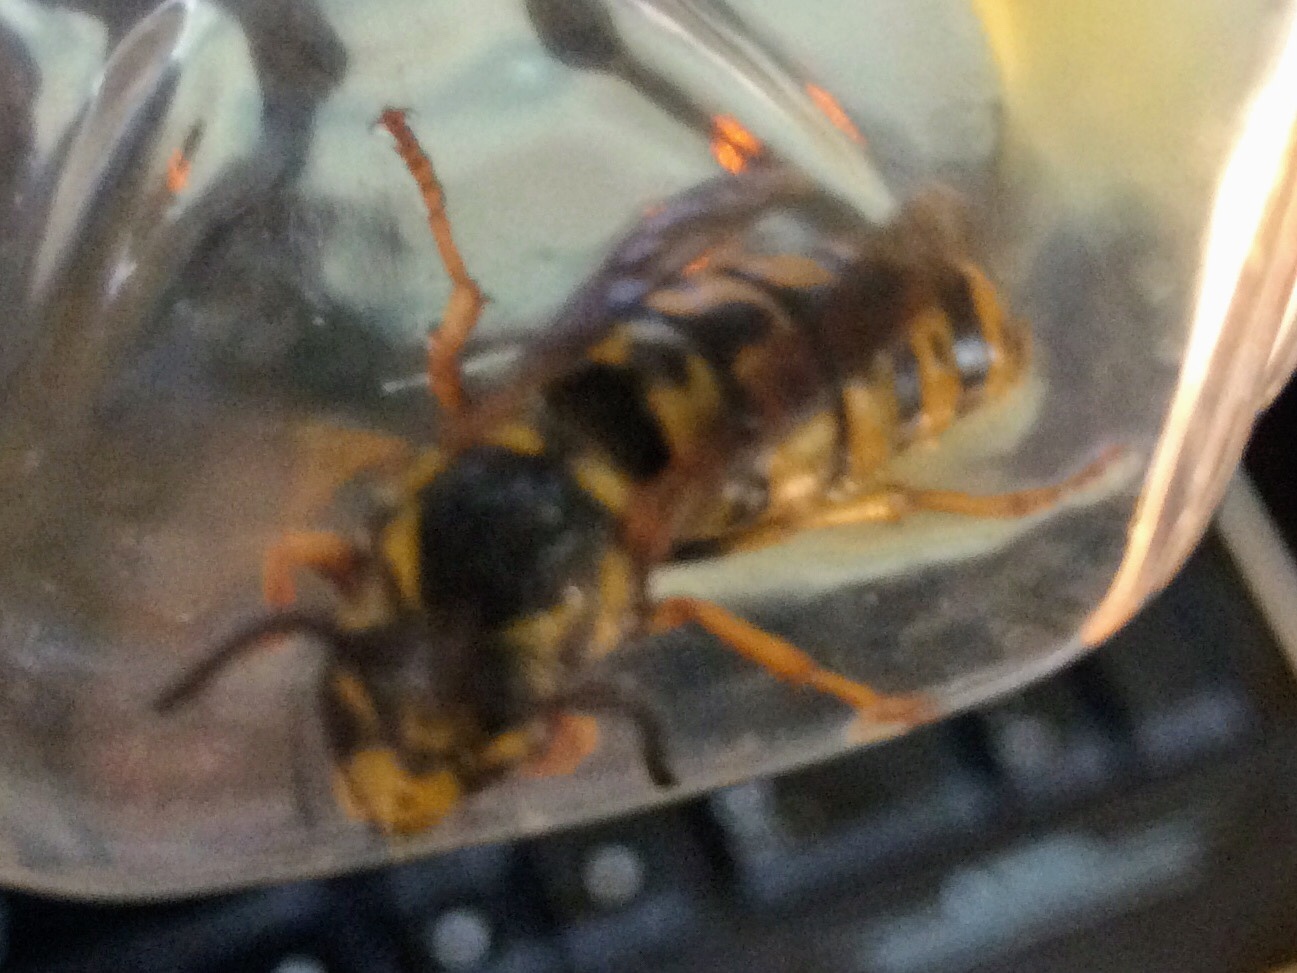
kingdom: Animalia
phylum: Arthropoda
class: Insecta
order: Hymenoptera
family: Vespidae
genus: Vespula
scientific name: Vespula germanica
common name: German wasp
